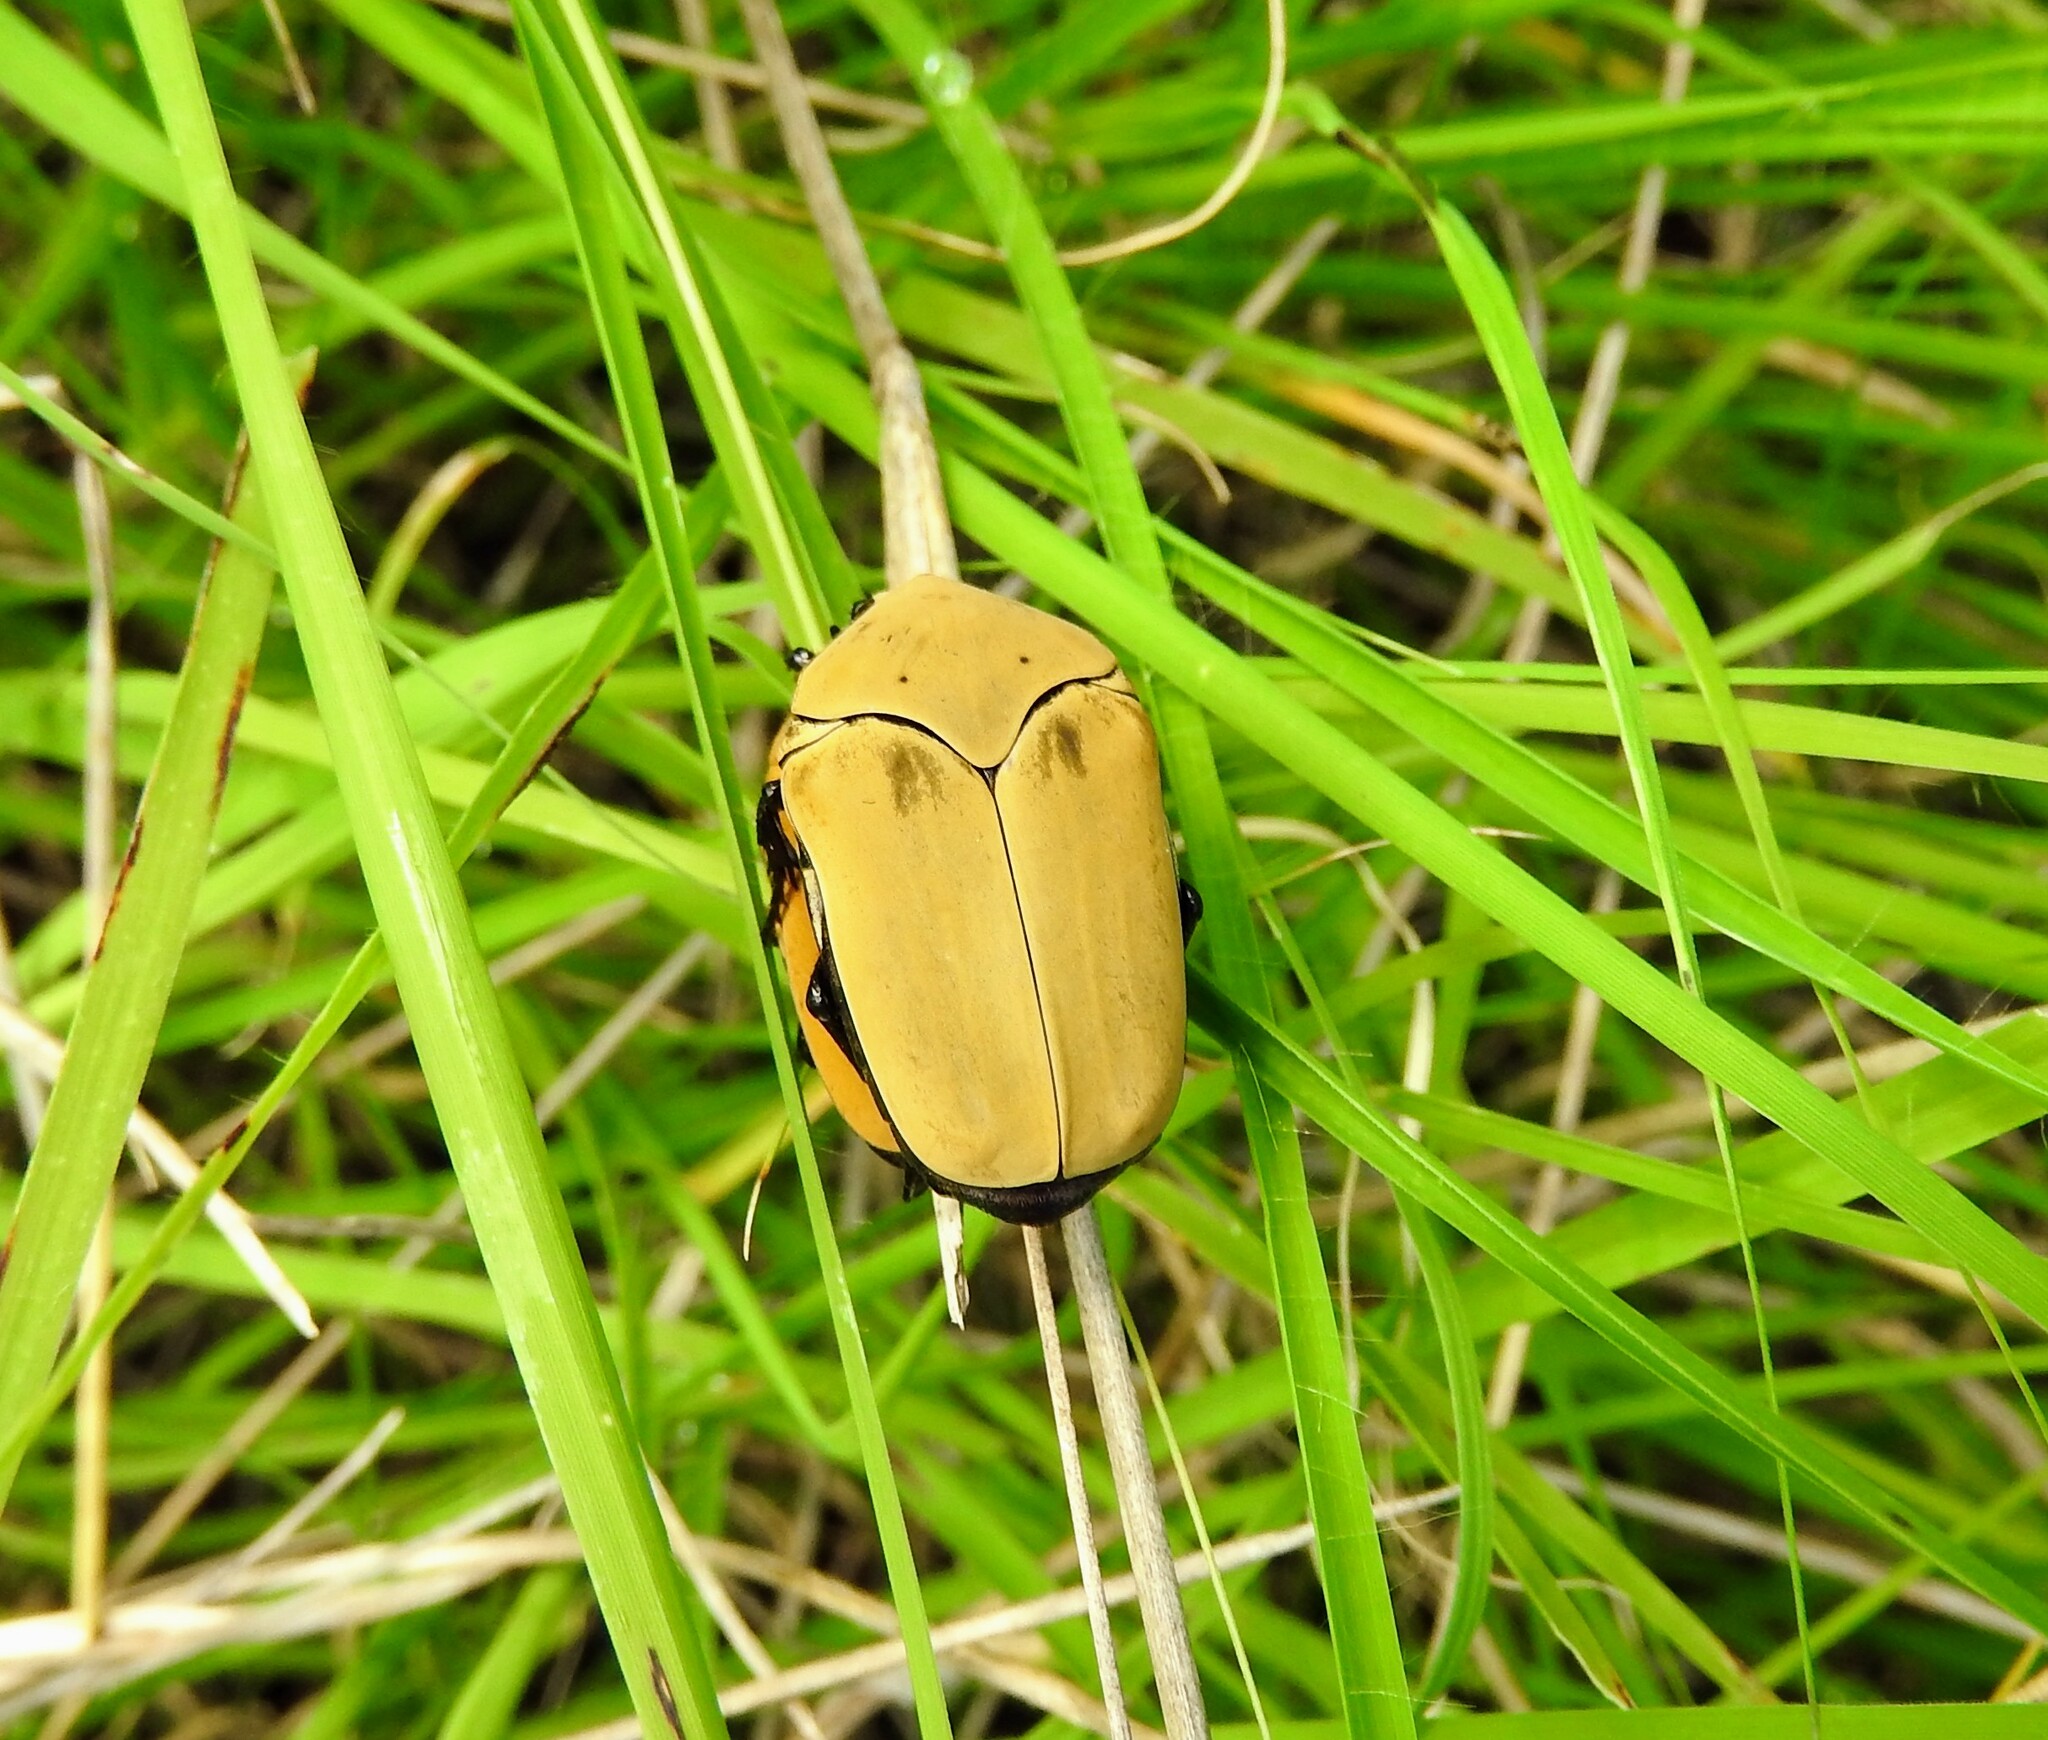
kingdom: Animalia
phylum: Arthropoda
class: Insecta
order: Coleoptera
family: Scarabaeidae
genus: Hologymnetis
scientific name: Hologymnetis cinerea
